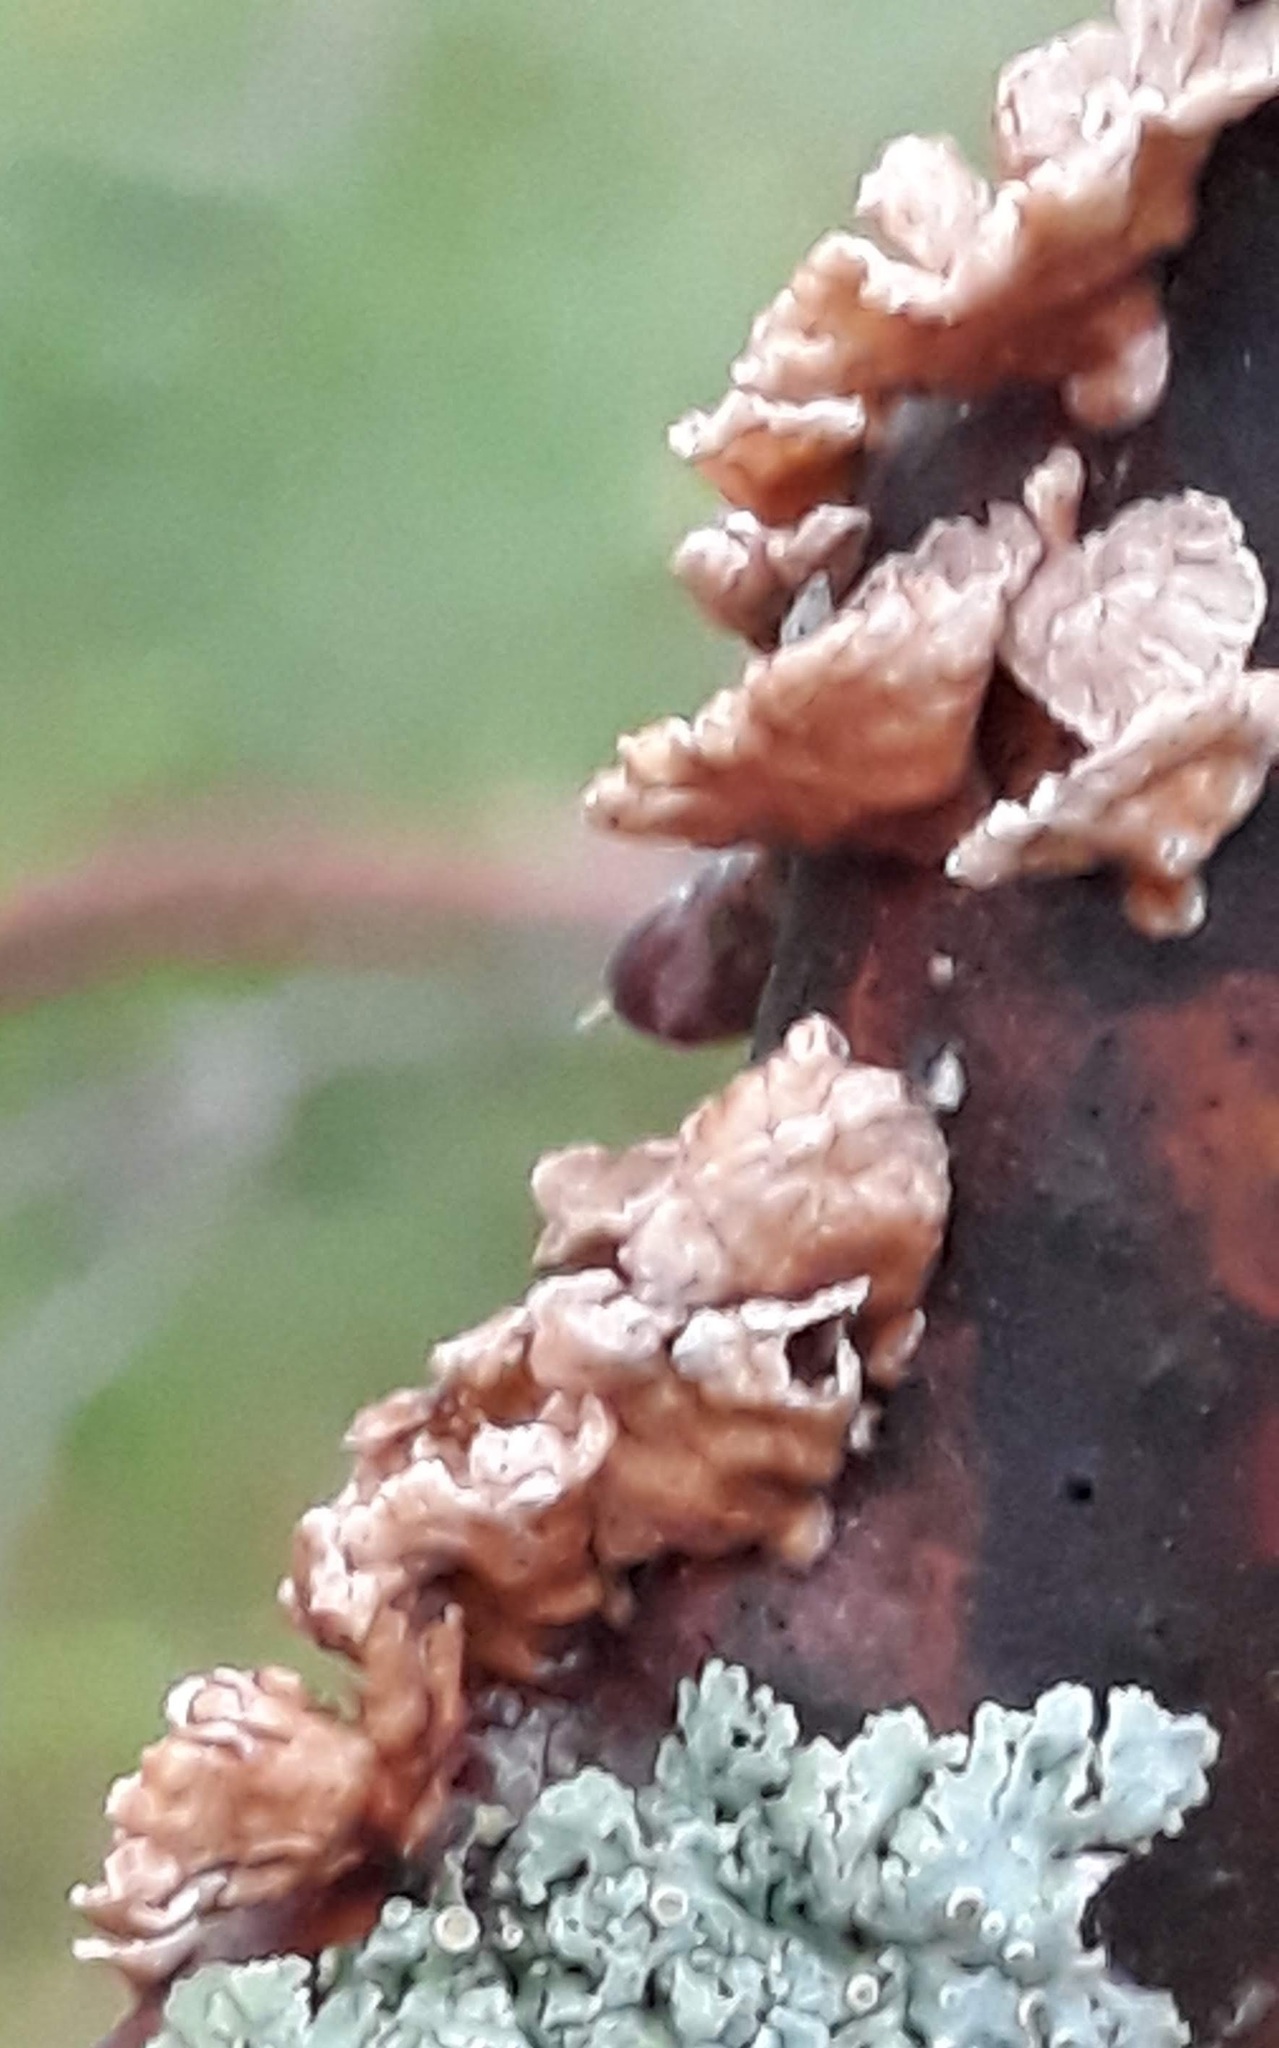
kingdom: Fungi
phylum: Basidiomycota
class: Agaricomycetes
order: Amylocorticiales
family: Amylocorticiaceae
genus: Plicaturopsis
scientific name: Plicaturopsis crispa
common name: Crimped gill
